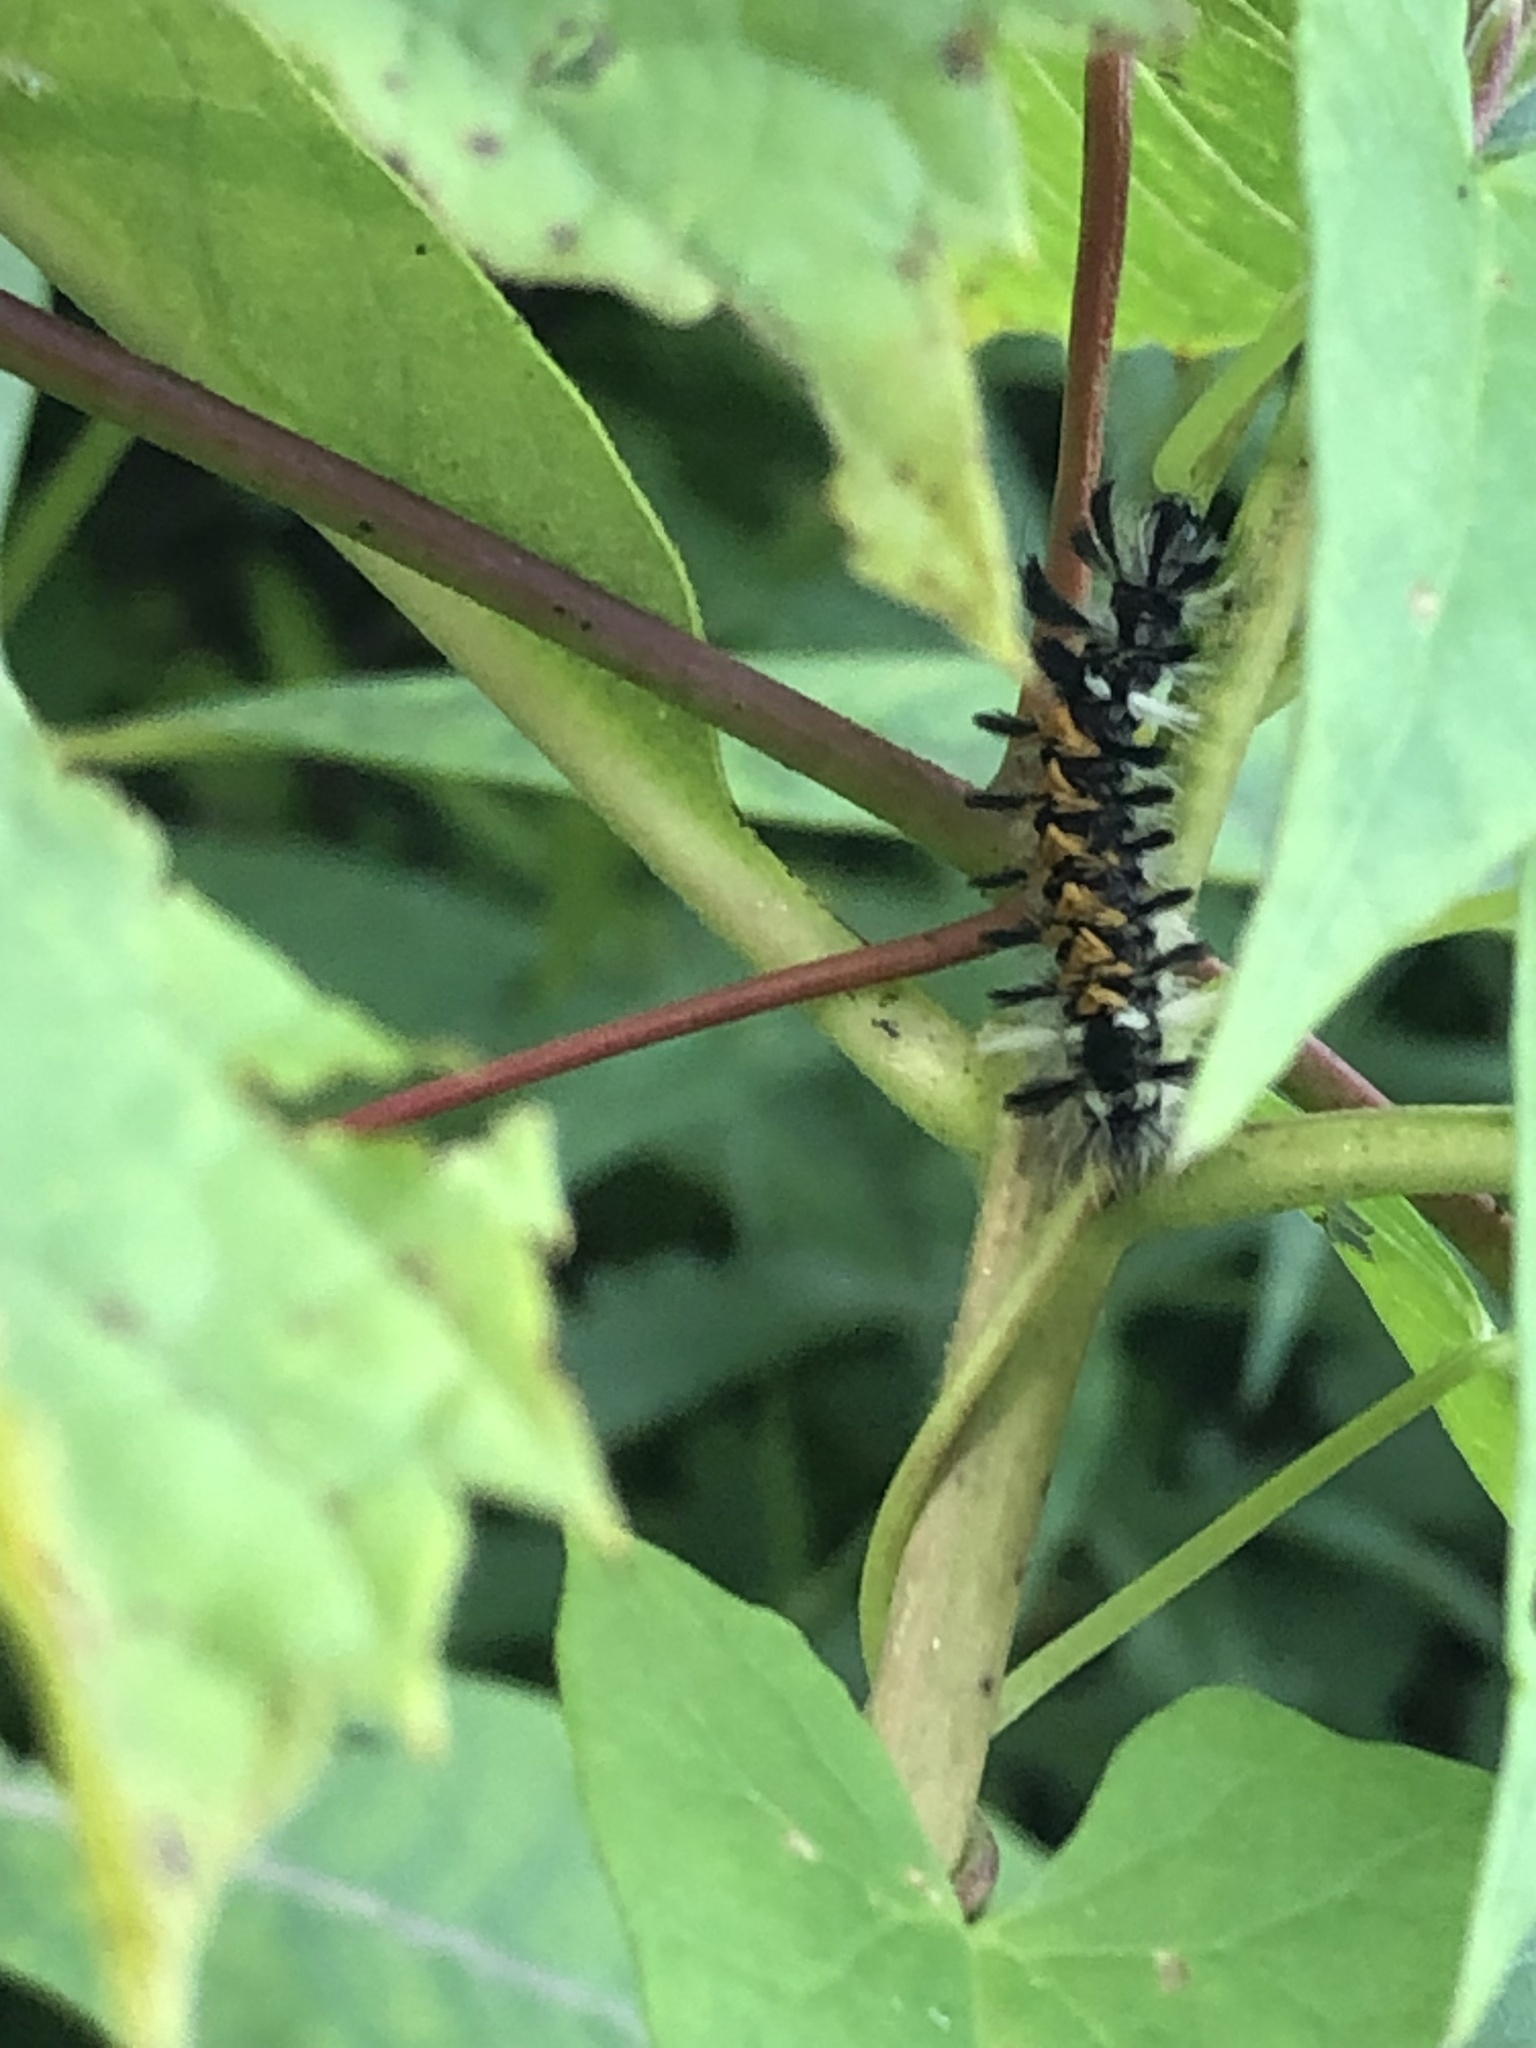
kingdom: Animalia
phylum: Arthropoda
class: Insecta
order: Lepidoptera
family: Erebidae
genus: Euchaetes
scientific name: Euchaetes egle
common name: Milkweed tussock moth
